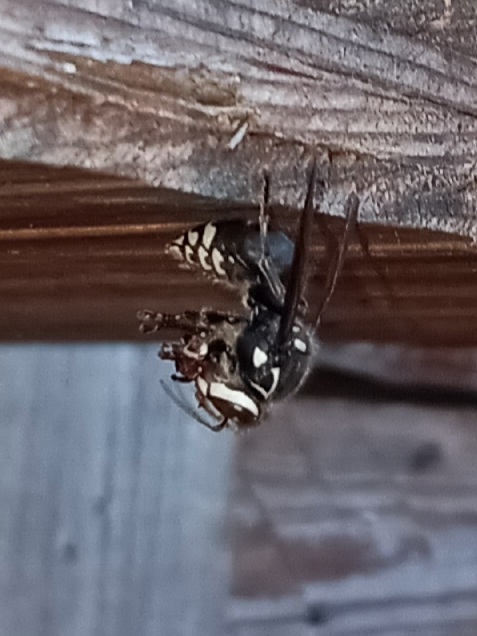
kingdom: Animalia
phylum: Arthropoda
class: Insecta
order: Hymenoptera
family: Vespidae
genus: Dolichovespula
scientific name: Dolichovespula maculata
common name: Bald-faced hornet
